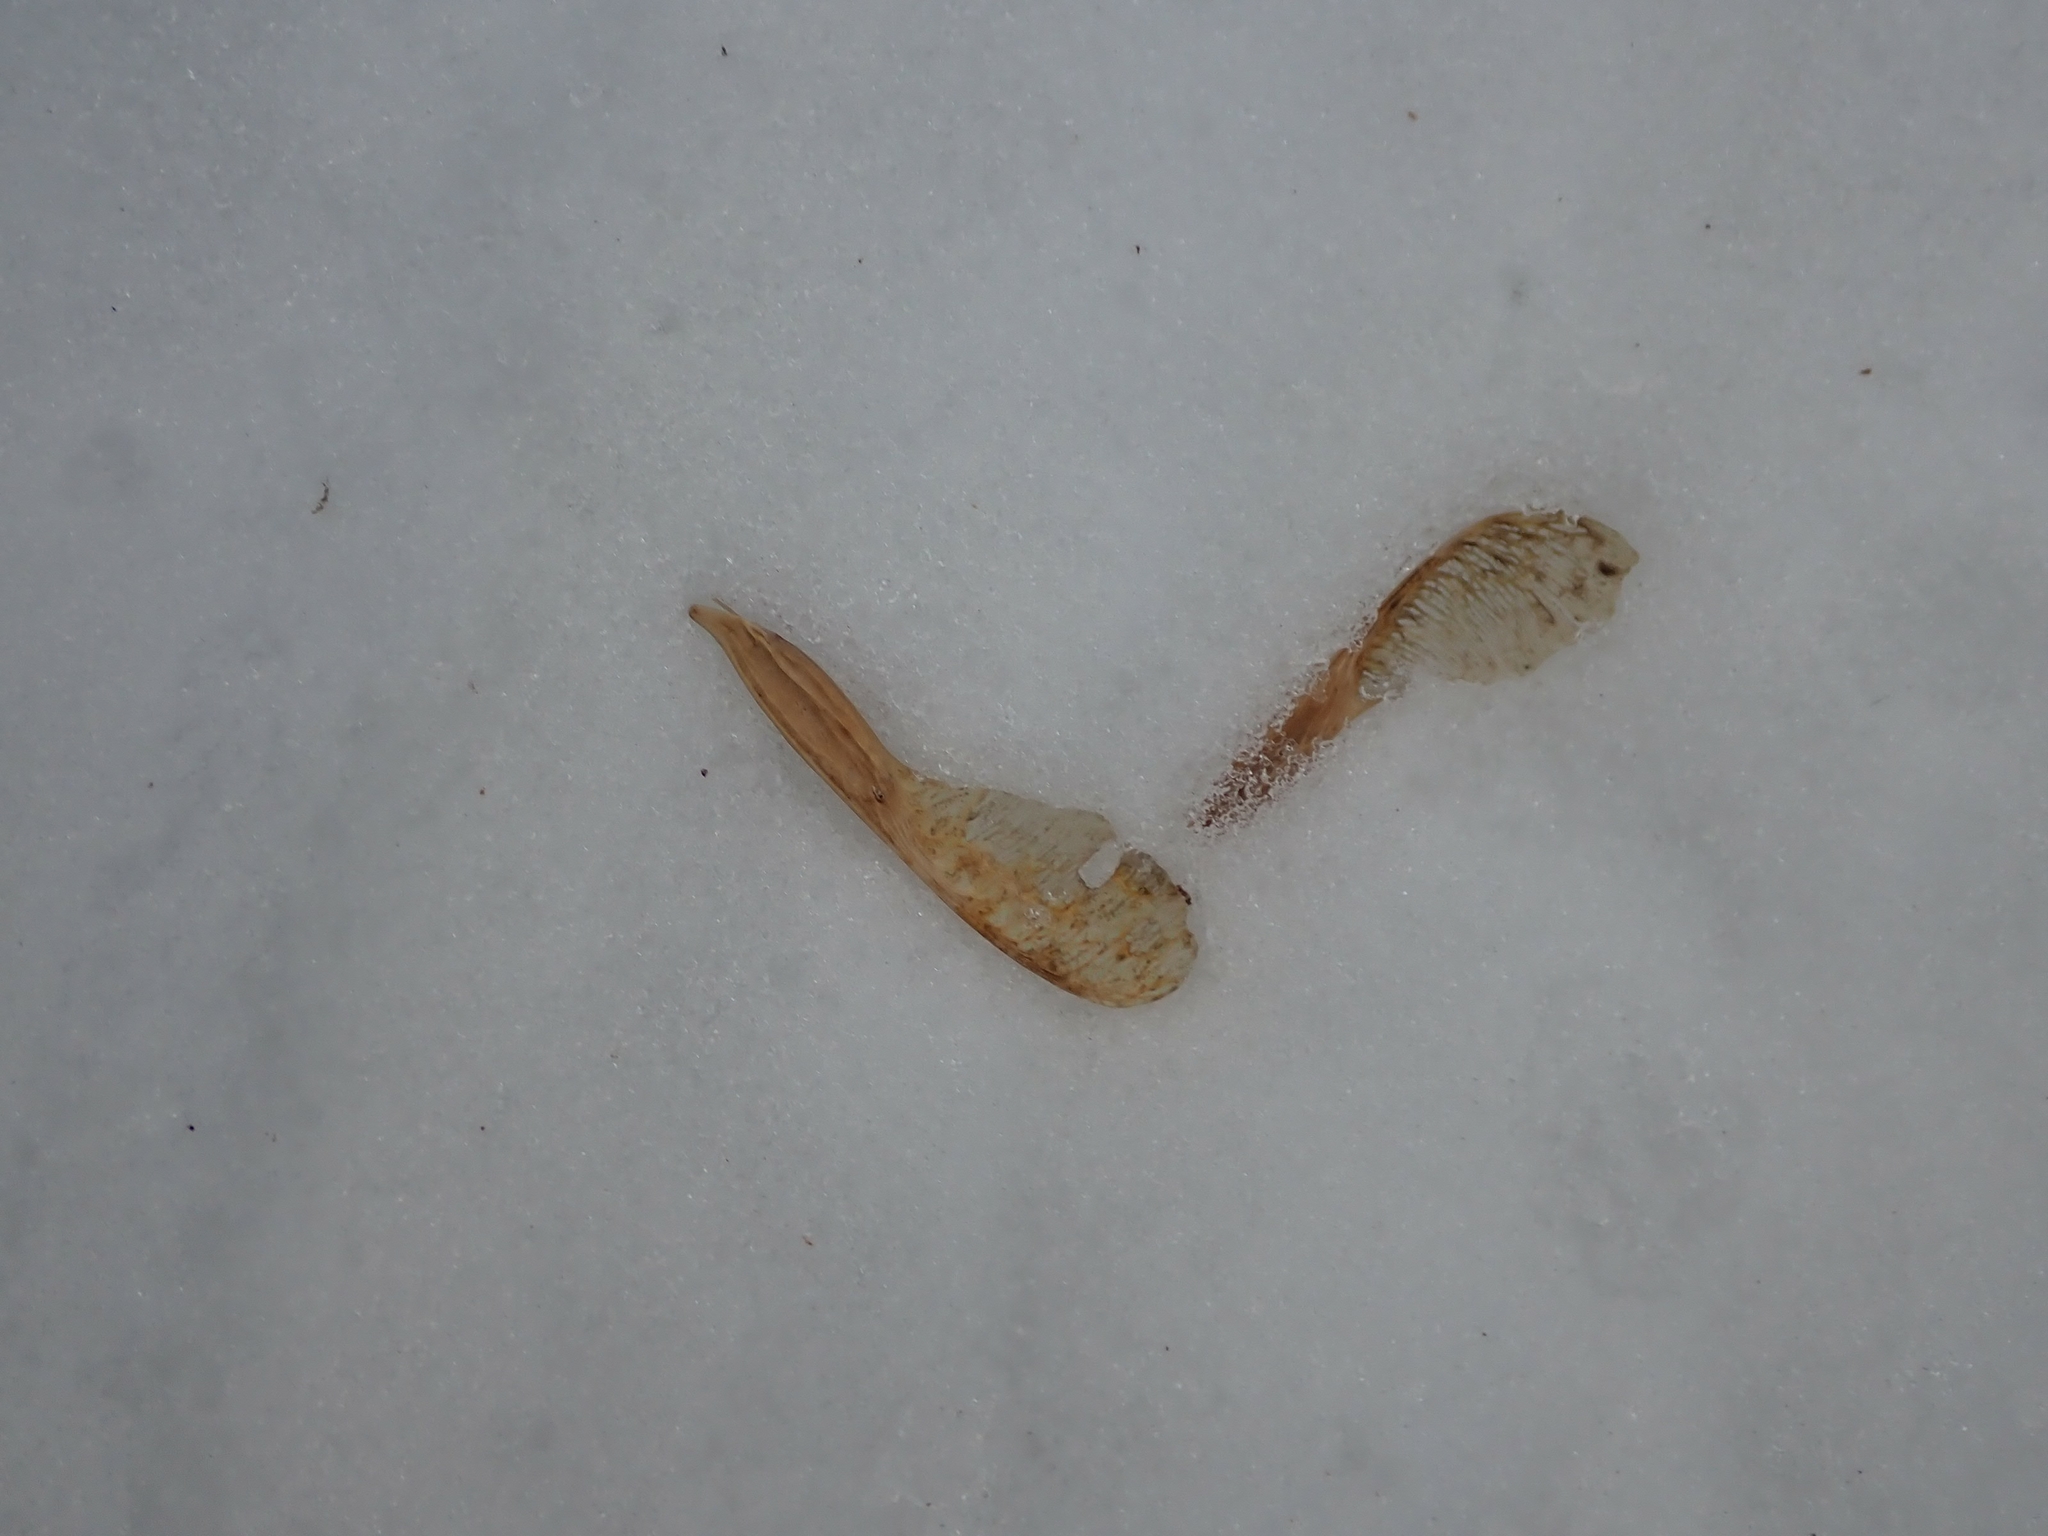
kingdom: Plantae
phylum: Tracheophyta
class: Magnoliopsida
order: Sapindales
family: Sapindaceae
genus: Acer
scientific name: Acer negundo
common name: Ashleaf maple
